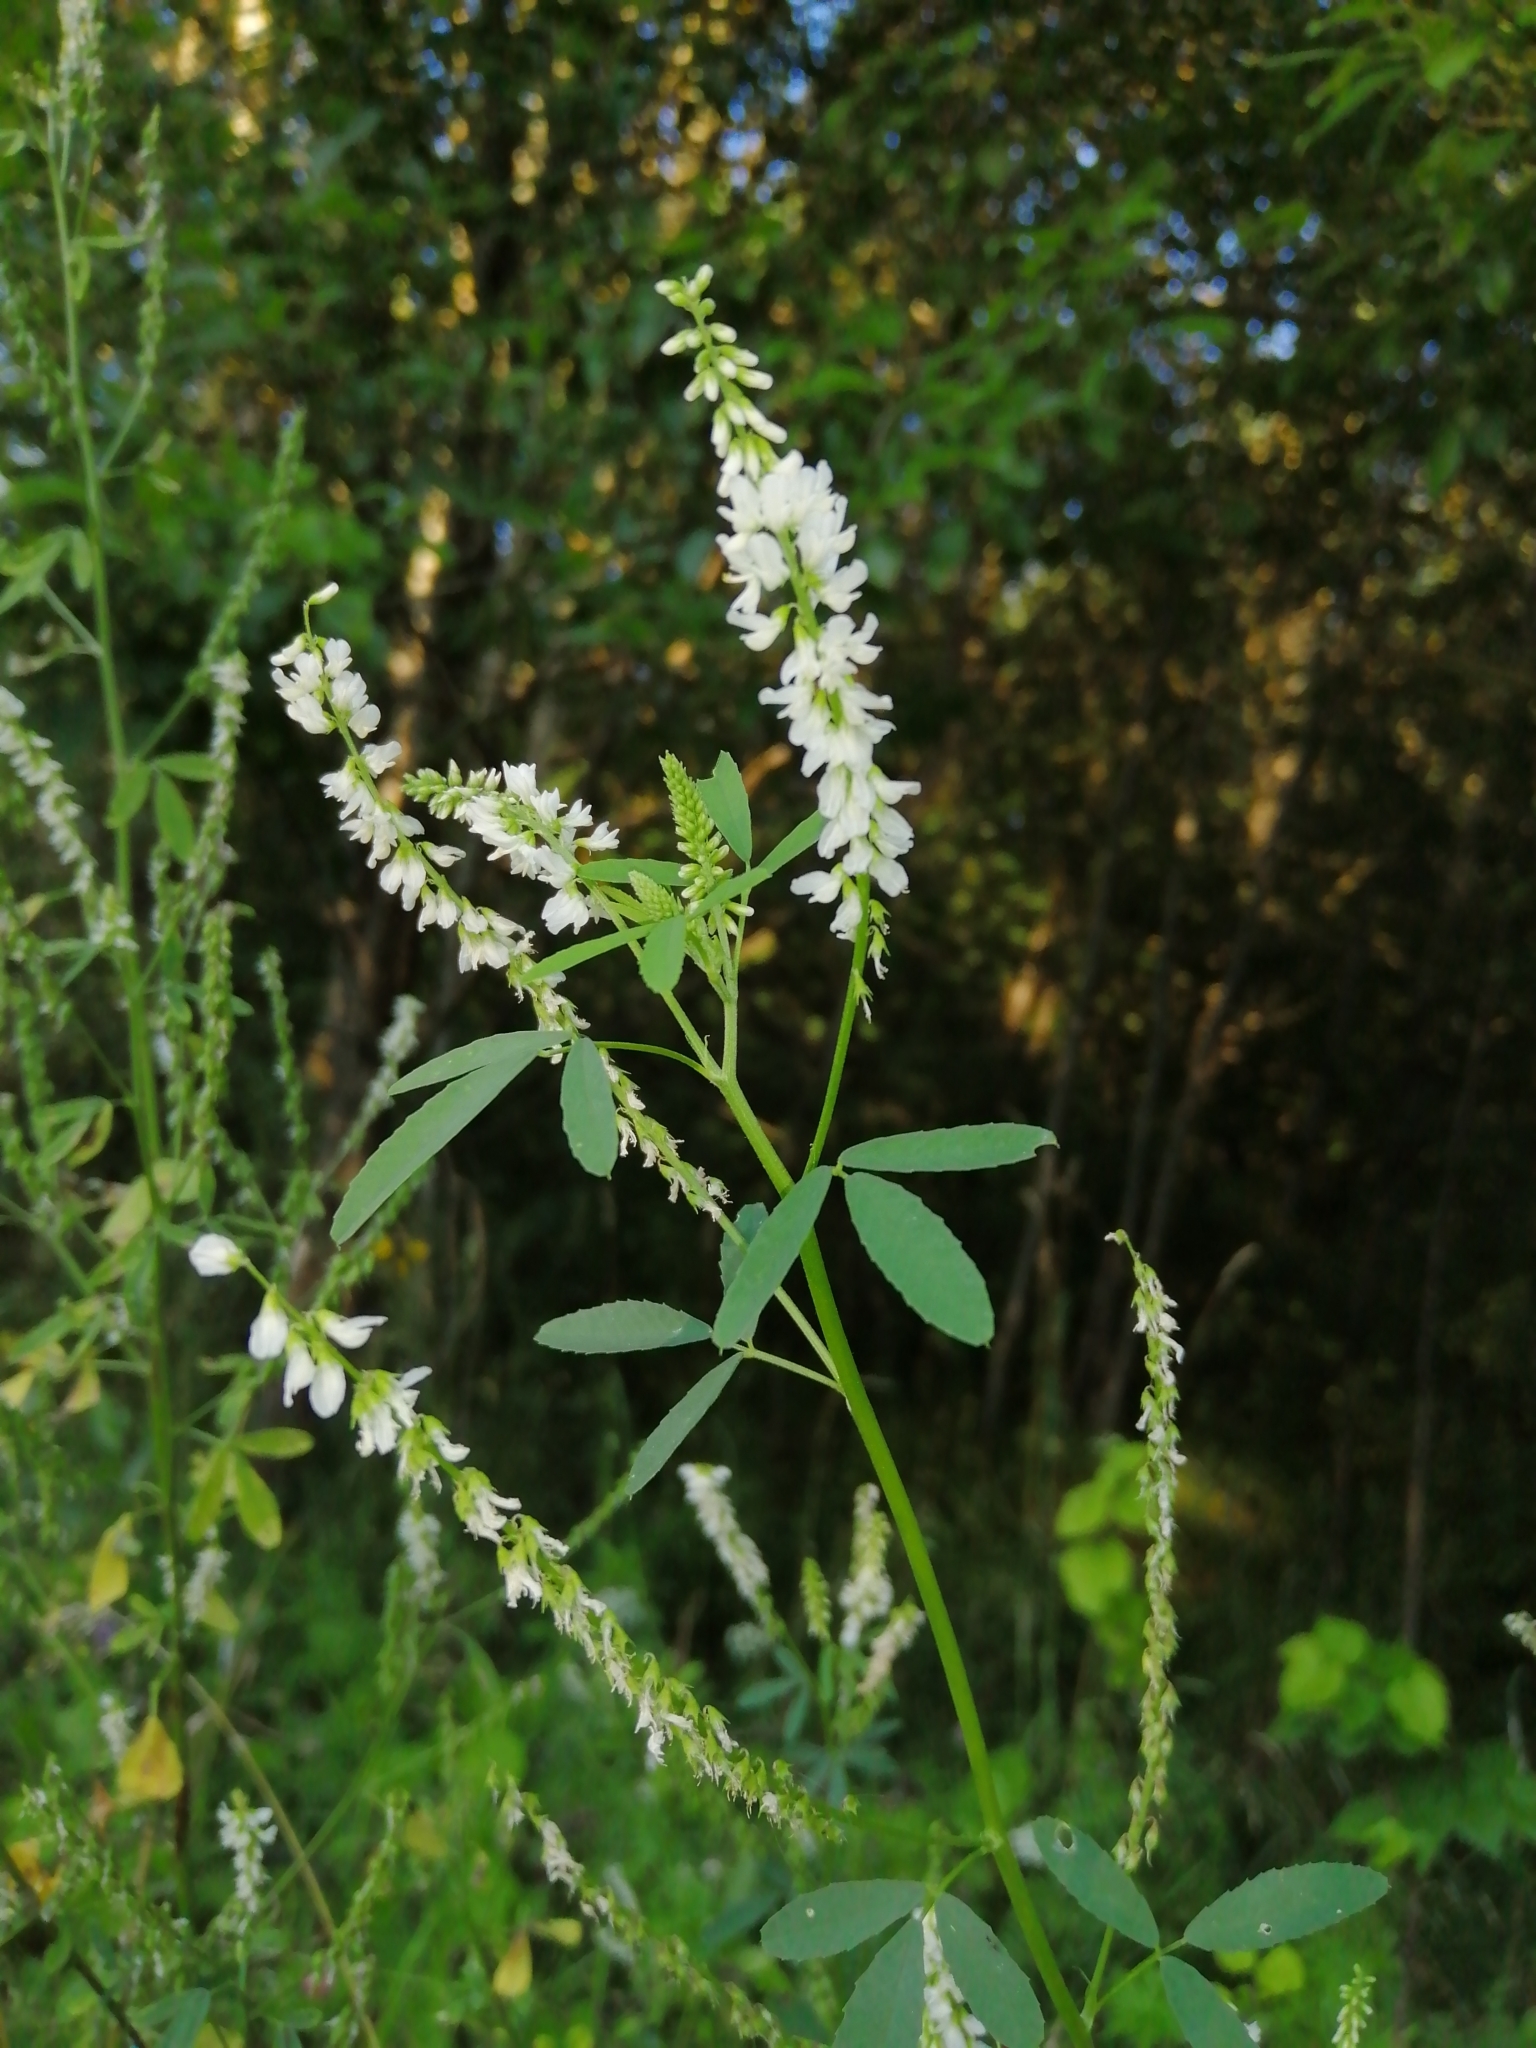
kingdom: Plantae
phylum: Tracheophyta
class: Magnoliopsida
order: Fabales
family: Fabaceae
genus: Melilotus
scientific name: Melilotus albus
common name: White melilot
